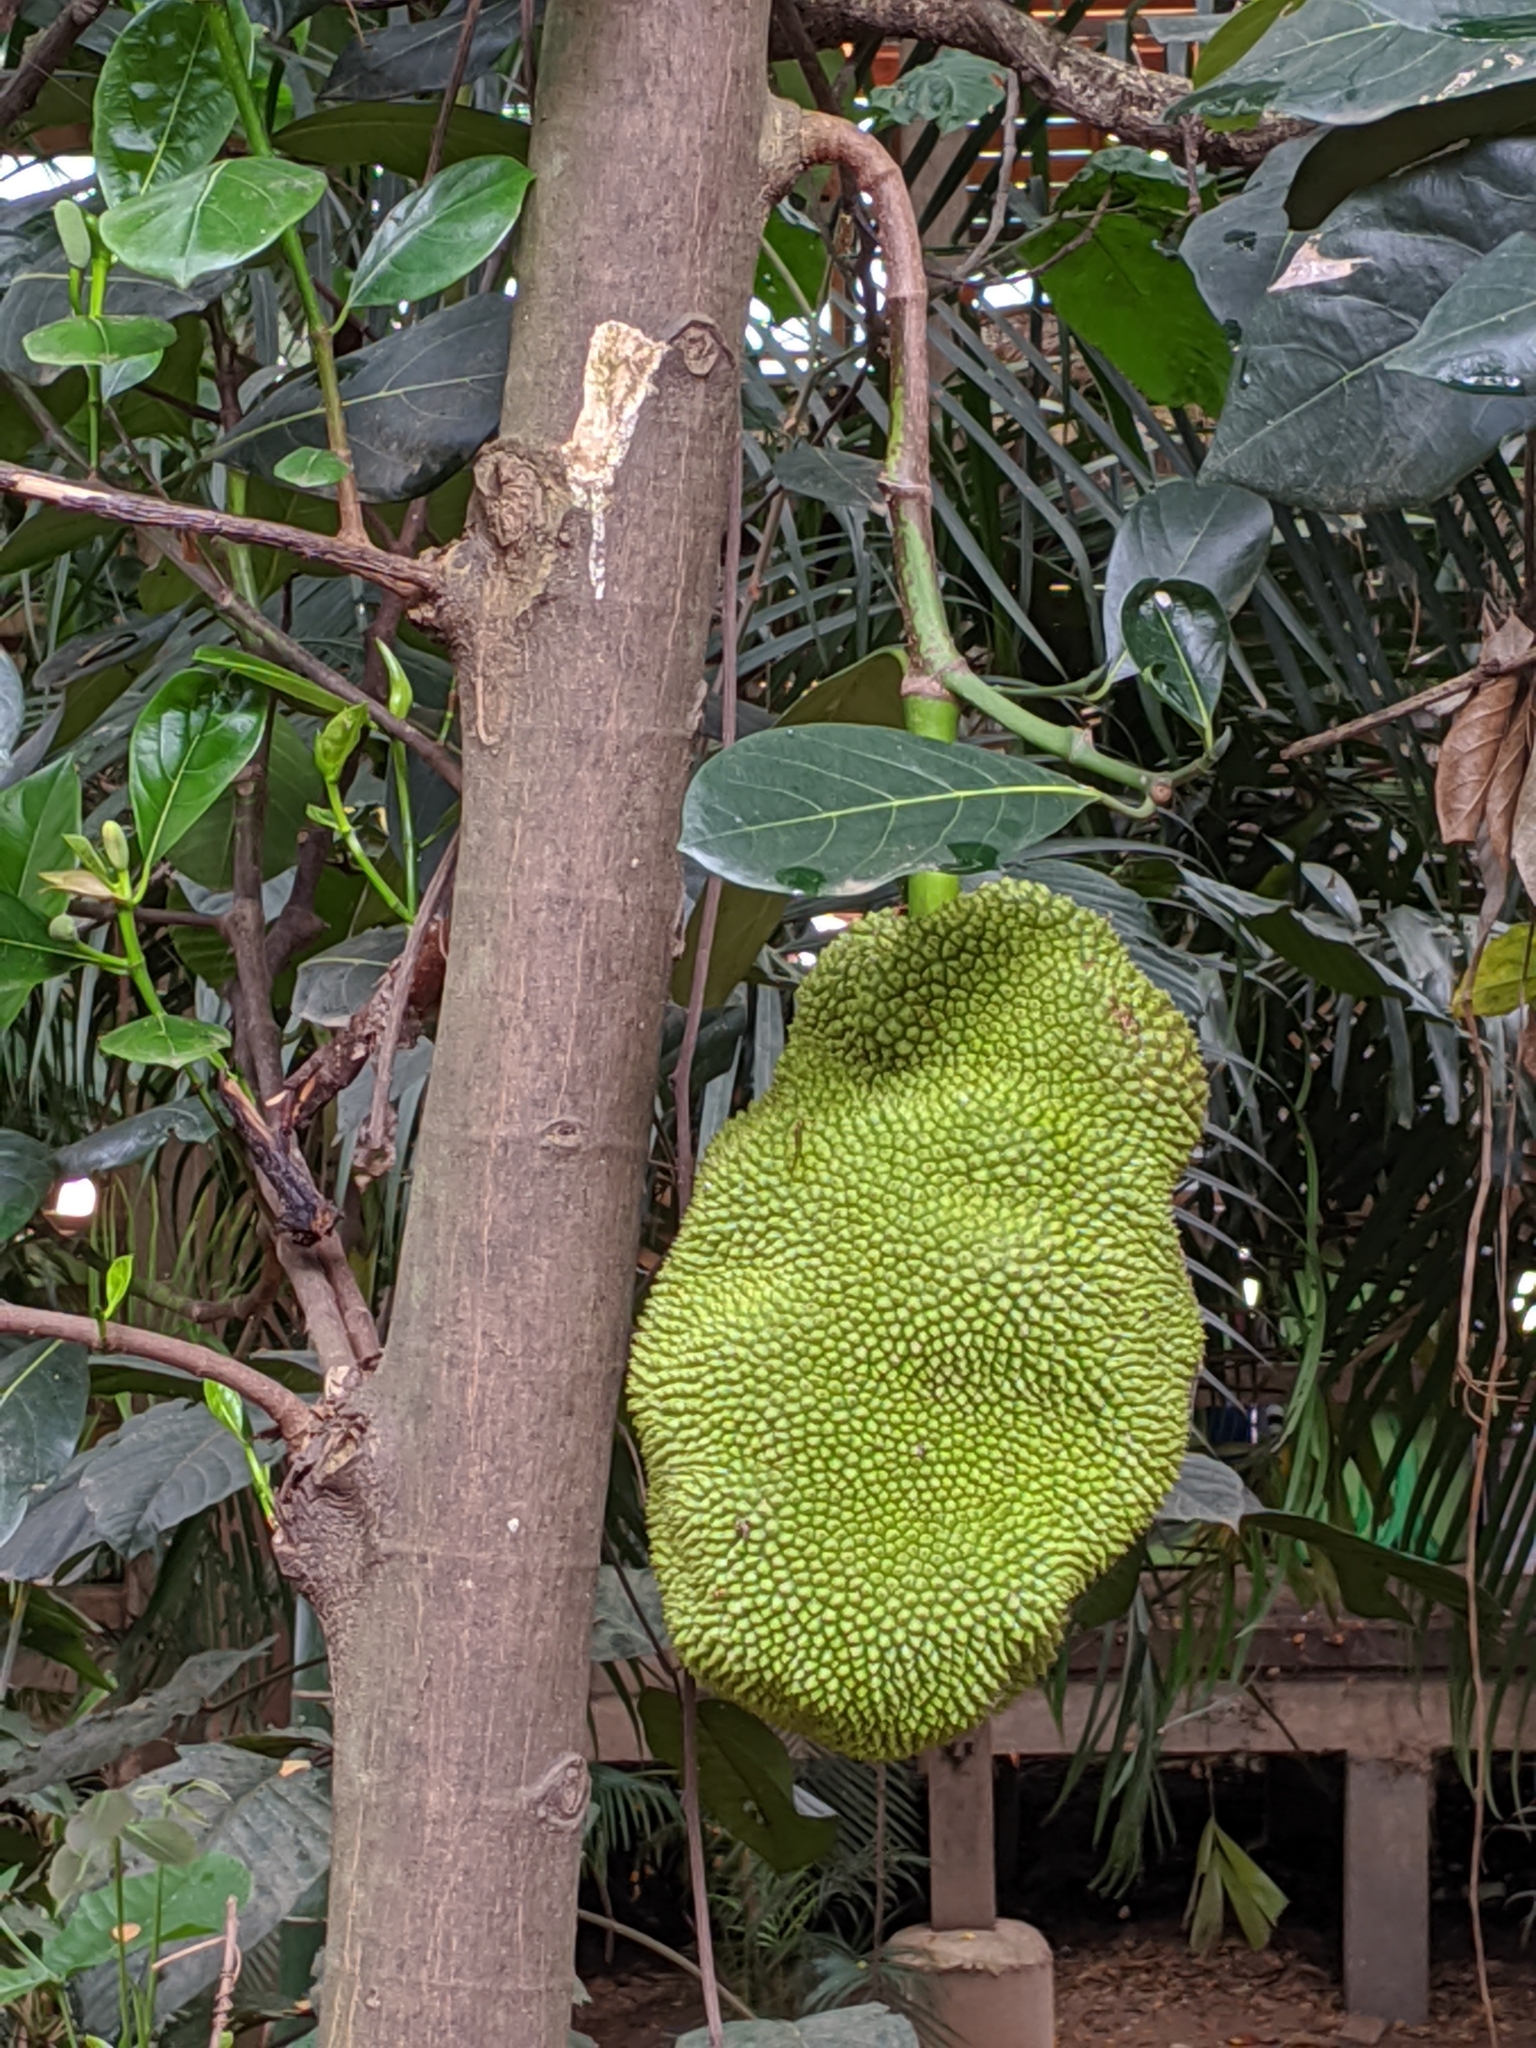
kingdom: Plantae
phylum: Tracheophyta
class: Magnoliopsida
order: Rosales
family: Moraceae
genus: Artocarpus
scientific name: Artocarpus heterophyllus
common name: Jackfruit
